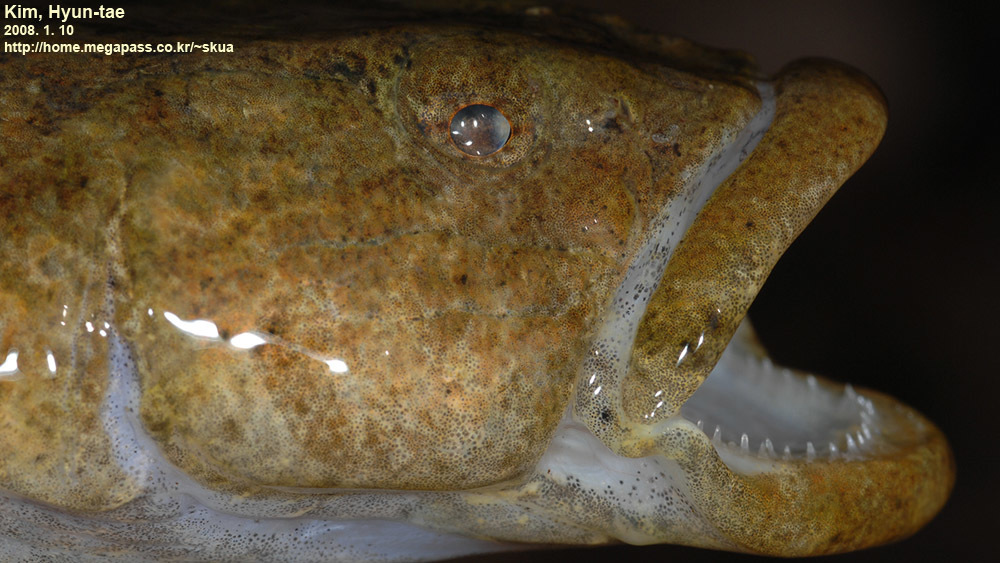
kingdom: Animalia
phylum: Chordata
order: Perciformes
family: Odontobutidae
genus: Odontobutis
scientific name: Odontobutis interrupta
